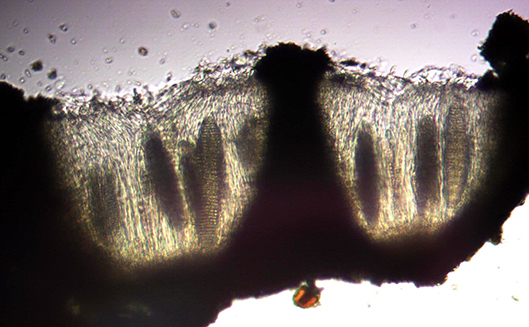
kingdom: Fungi
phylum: Ascomycota
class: Lecanoromycetes
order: Ostropales
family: Graphidaceae
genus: Ocellularia
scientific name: Ocellularia
